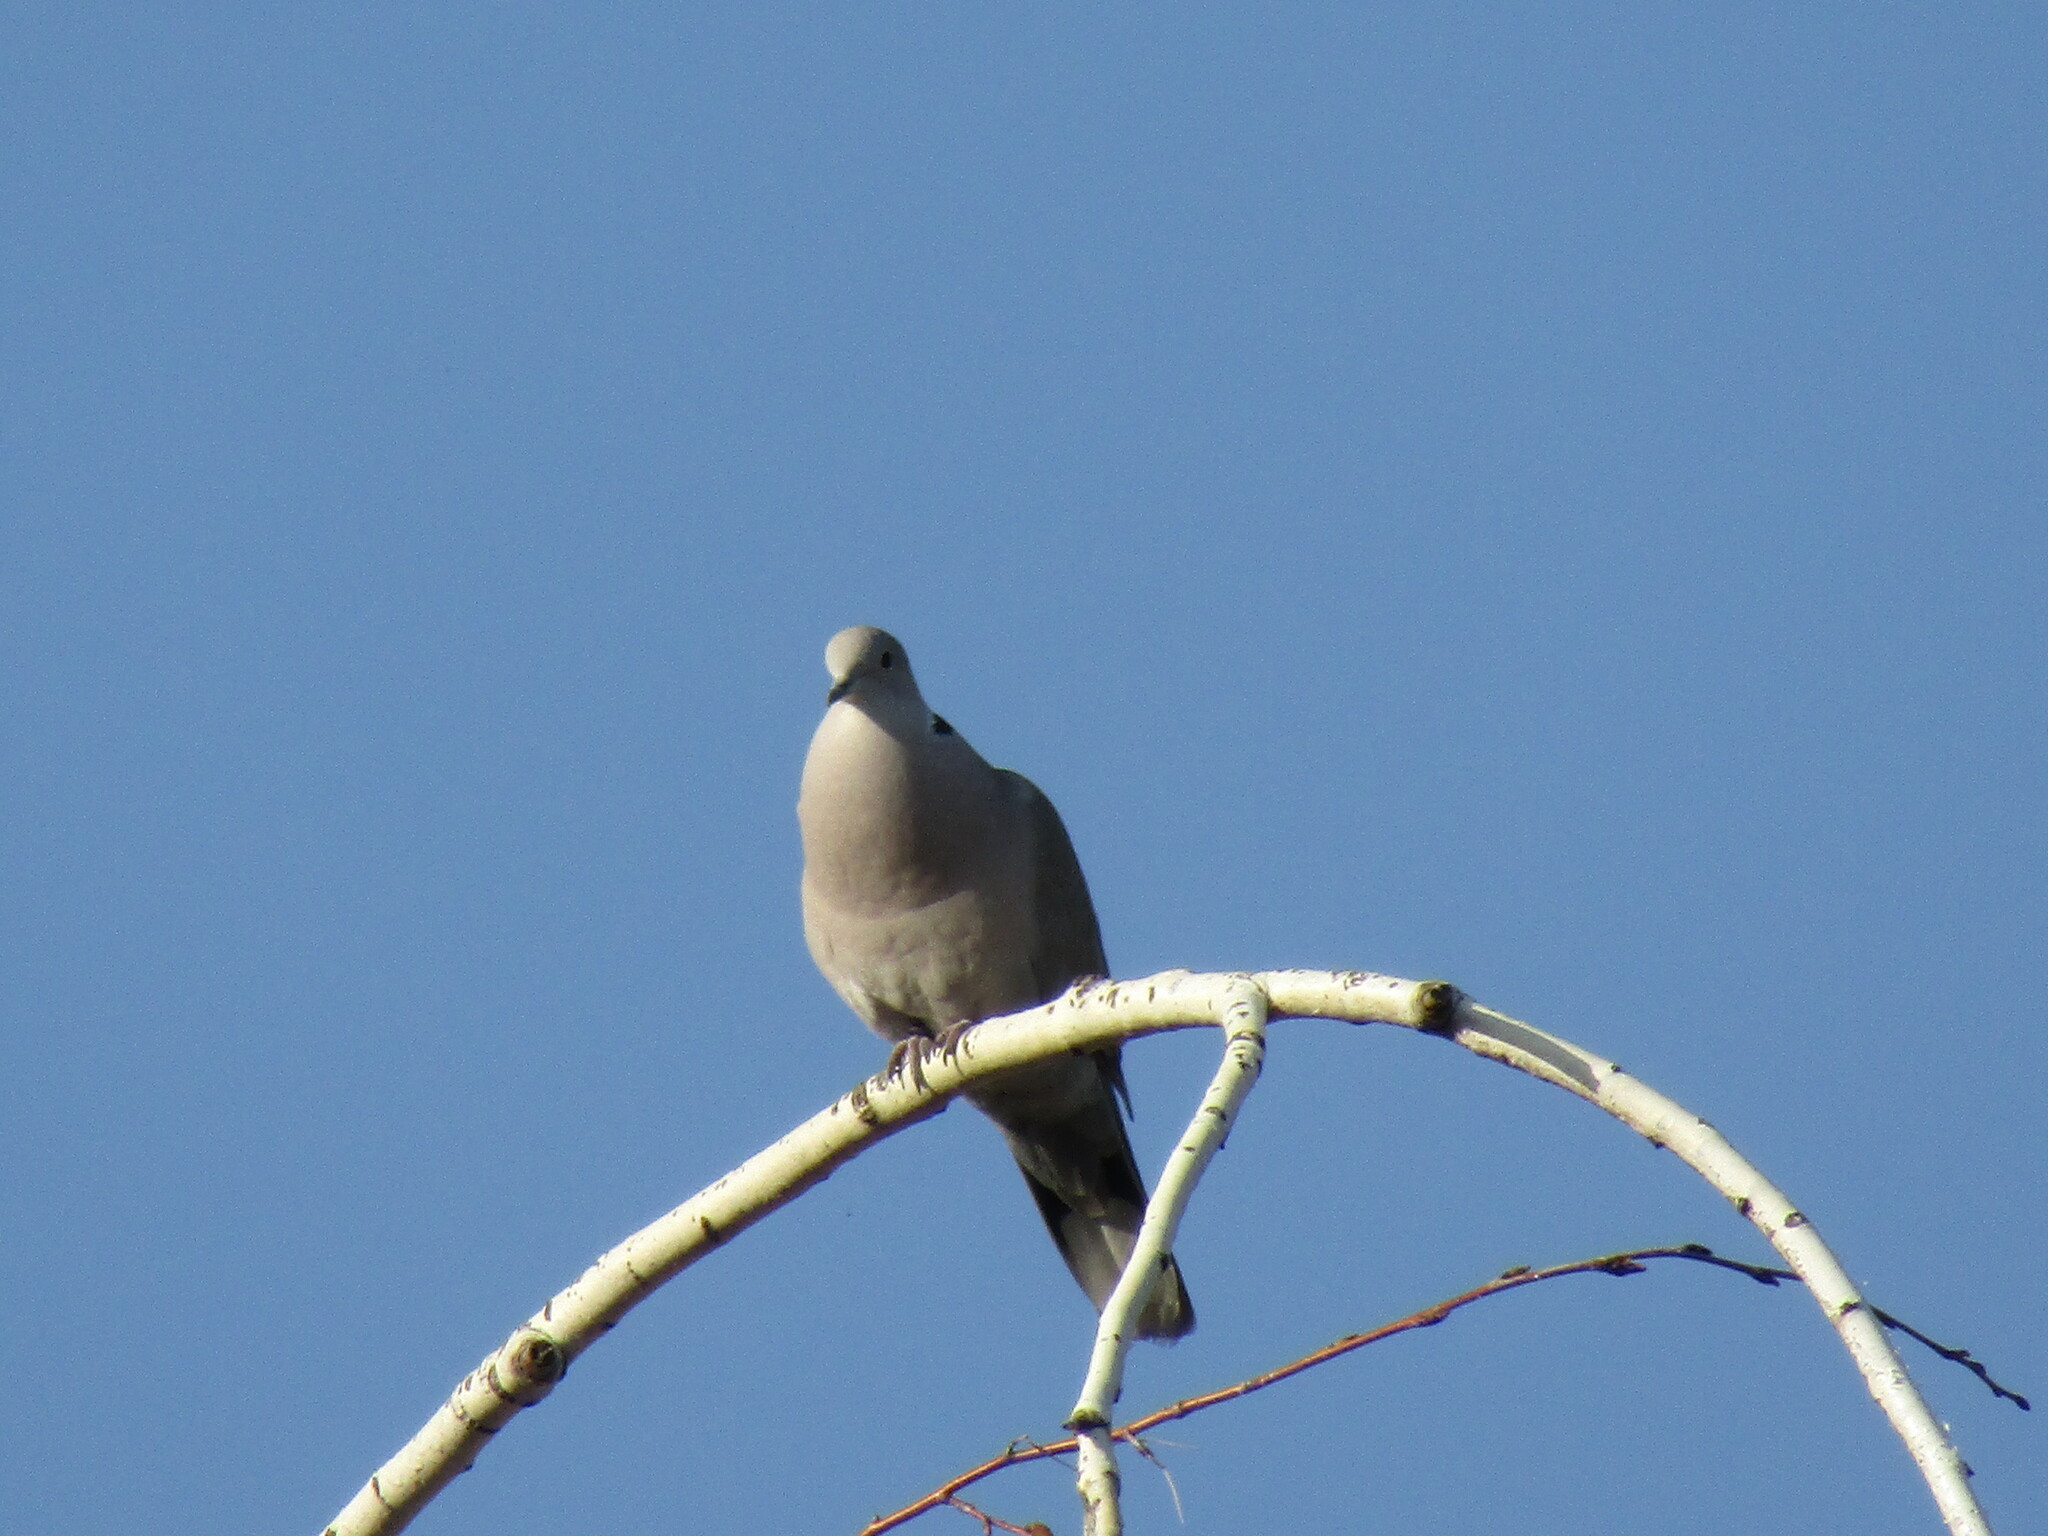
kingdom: Animalia
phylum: Chordata
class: Aves
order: Columbiformes
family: Columbidae
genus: Streptopelia
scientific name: Streptopelia decaocto
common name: Eurasian collared dove
